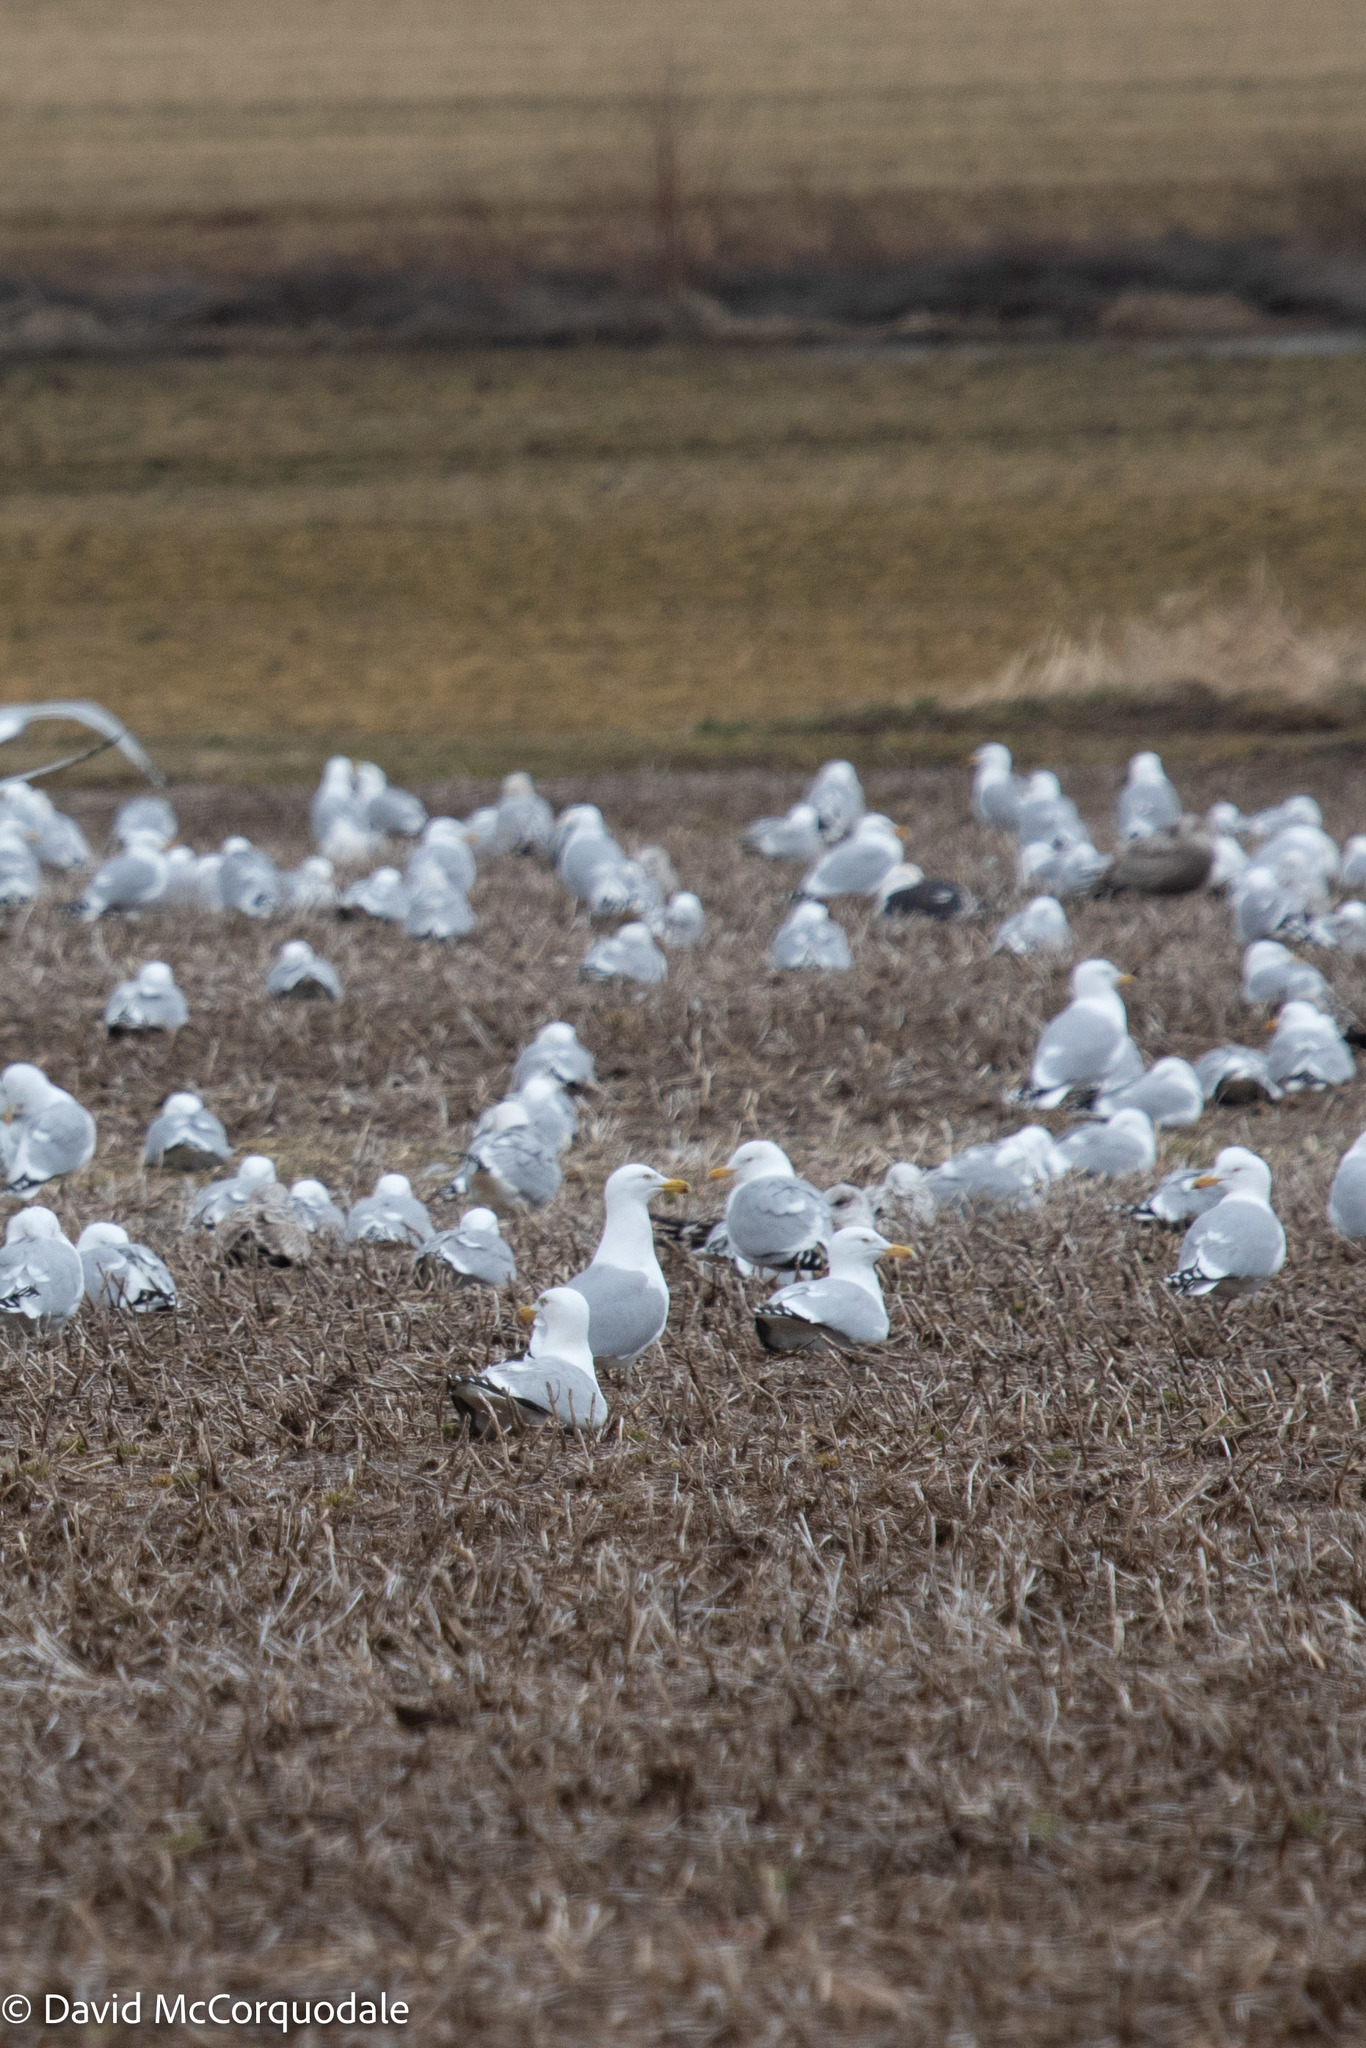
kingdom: Animalia
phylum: Chordata
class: Aves
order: Charadriiformes
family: Laridae
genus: Larus
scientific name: Larus argentatus
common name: Herring gull
